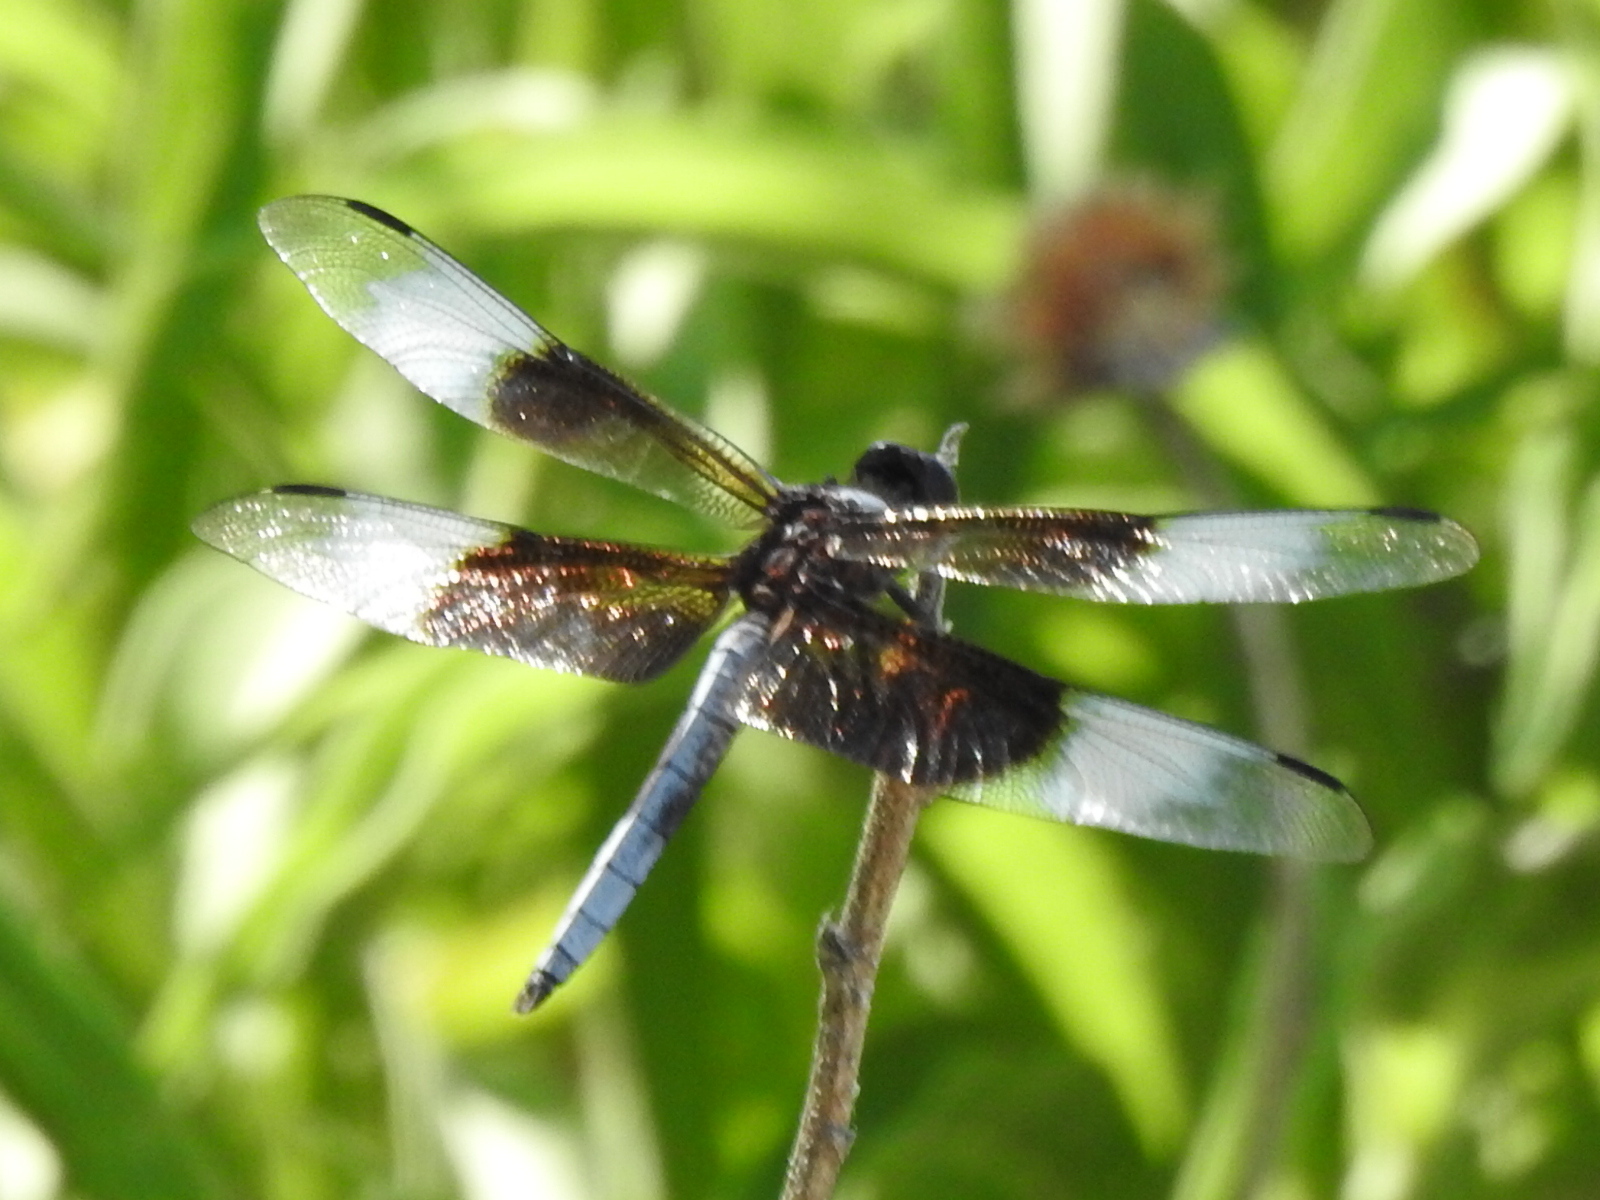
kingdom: Animalia
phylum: Arthropoda
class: Insecta
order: Odonata
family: Libellulidae
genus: Libellula
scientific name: Libellula luctuosa
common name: Widow skimmer
